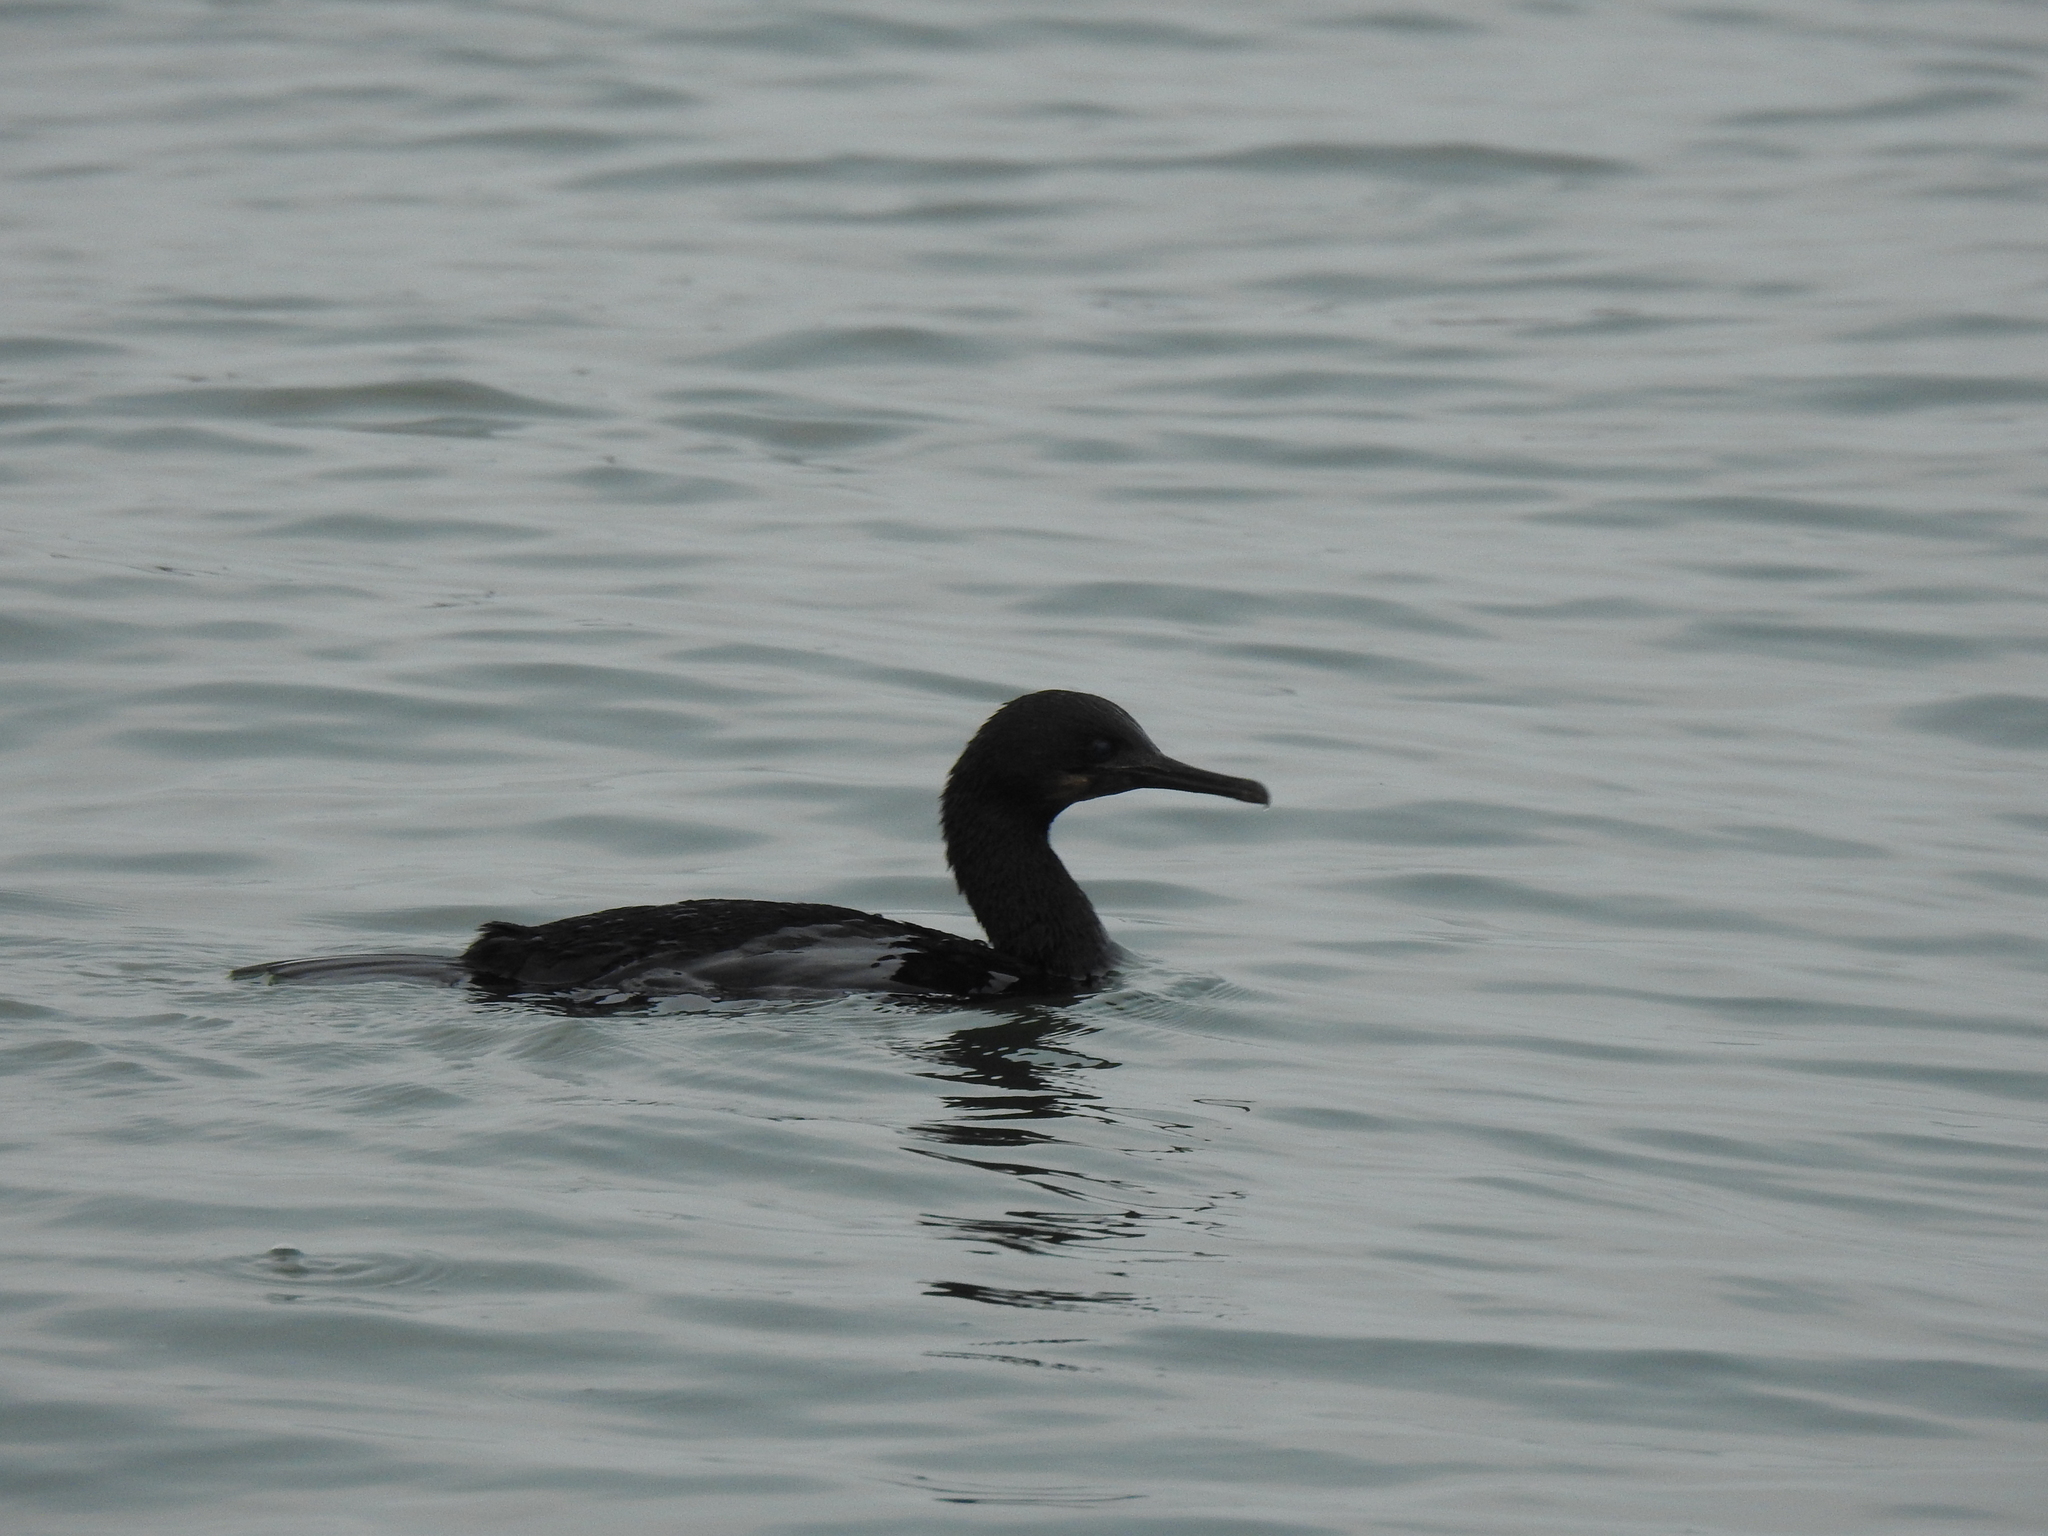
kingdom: Animalia
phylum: Chordata
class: Aves
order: Suliformes
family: Phalacrocoracidae
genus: Urile
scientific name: Urile penicillatus
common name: Brandt's cormorant
